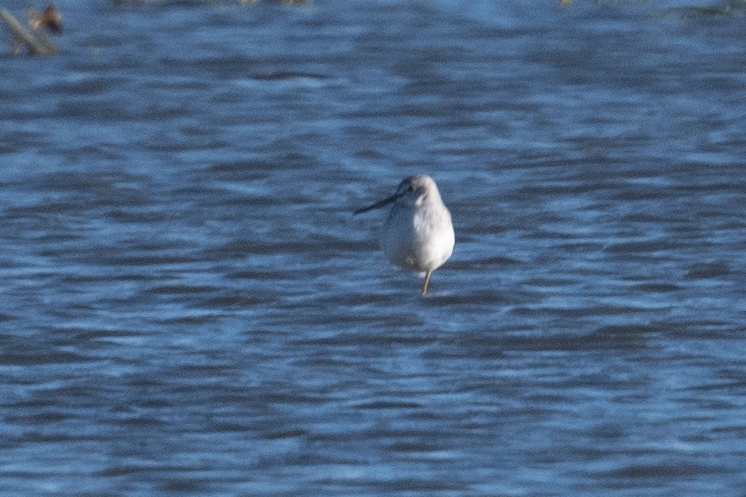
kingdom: Animalia
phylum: Chordata
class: Aves
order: Charadriiformes
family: Scolopacidae
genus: Tringa
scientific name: Tringa melanoleuca
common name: Greater yellowlegs
